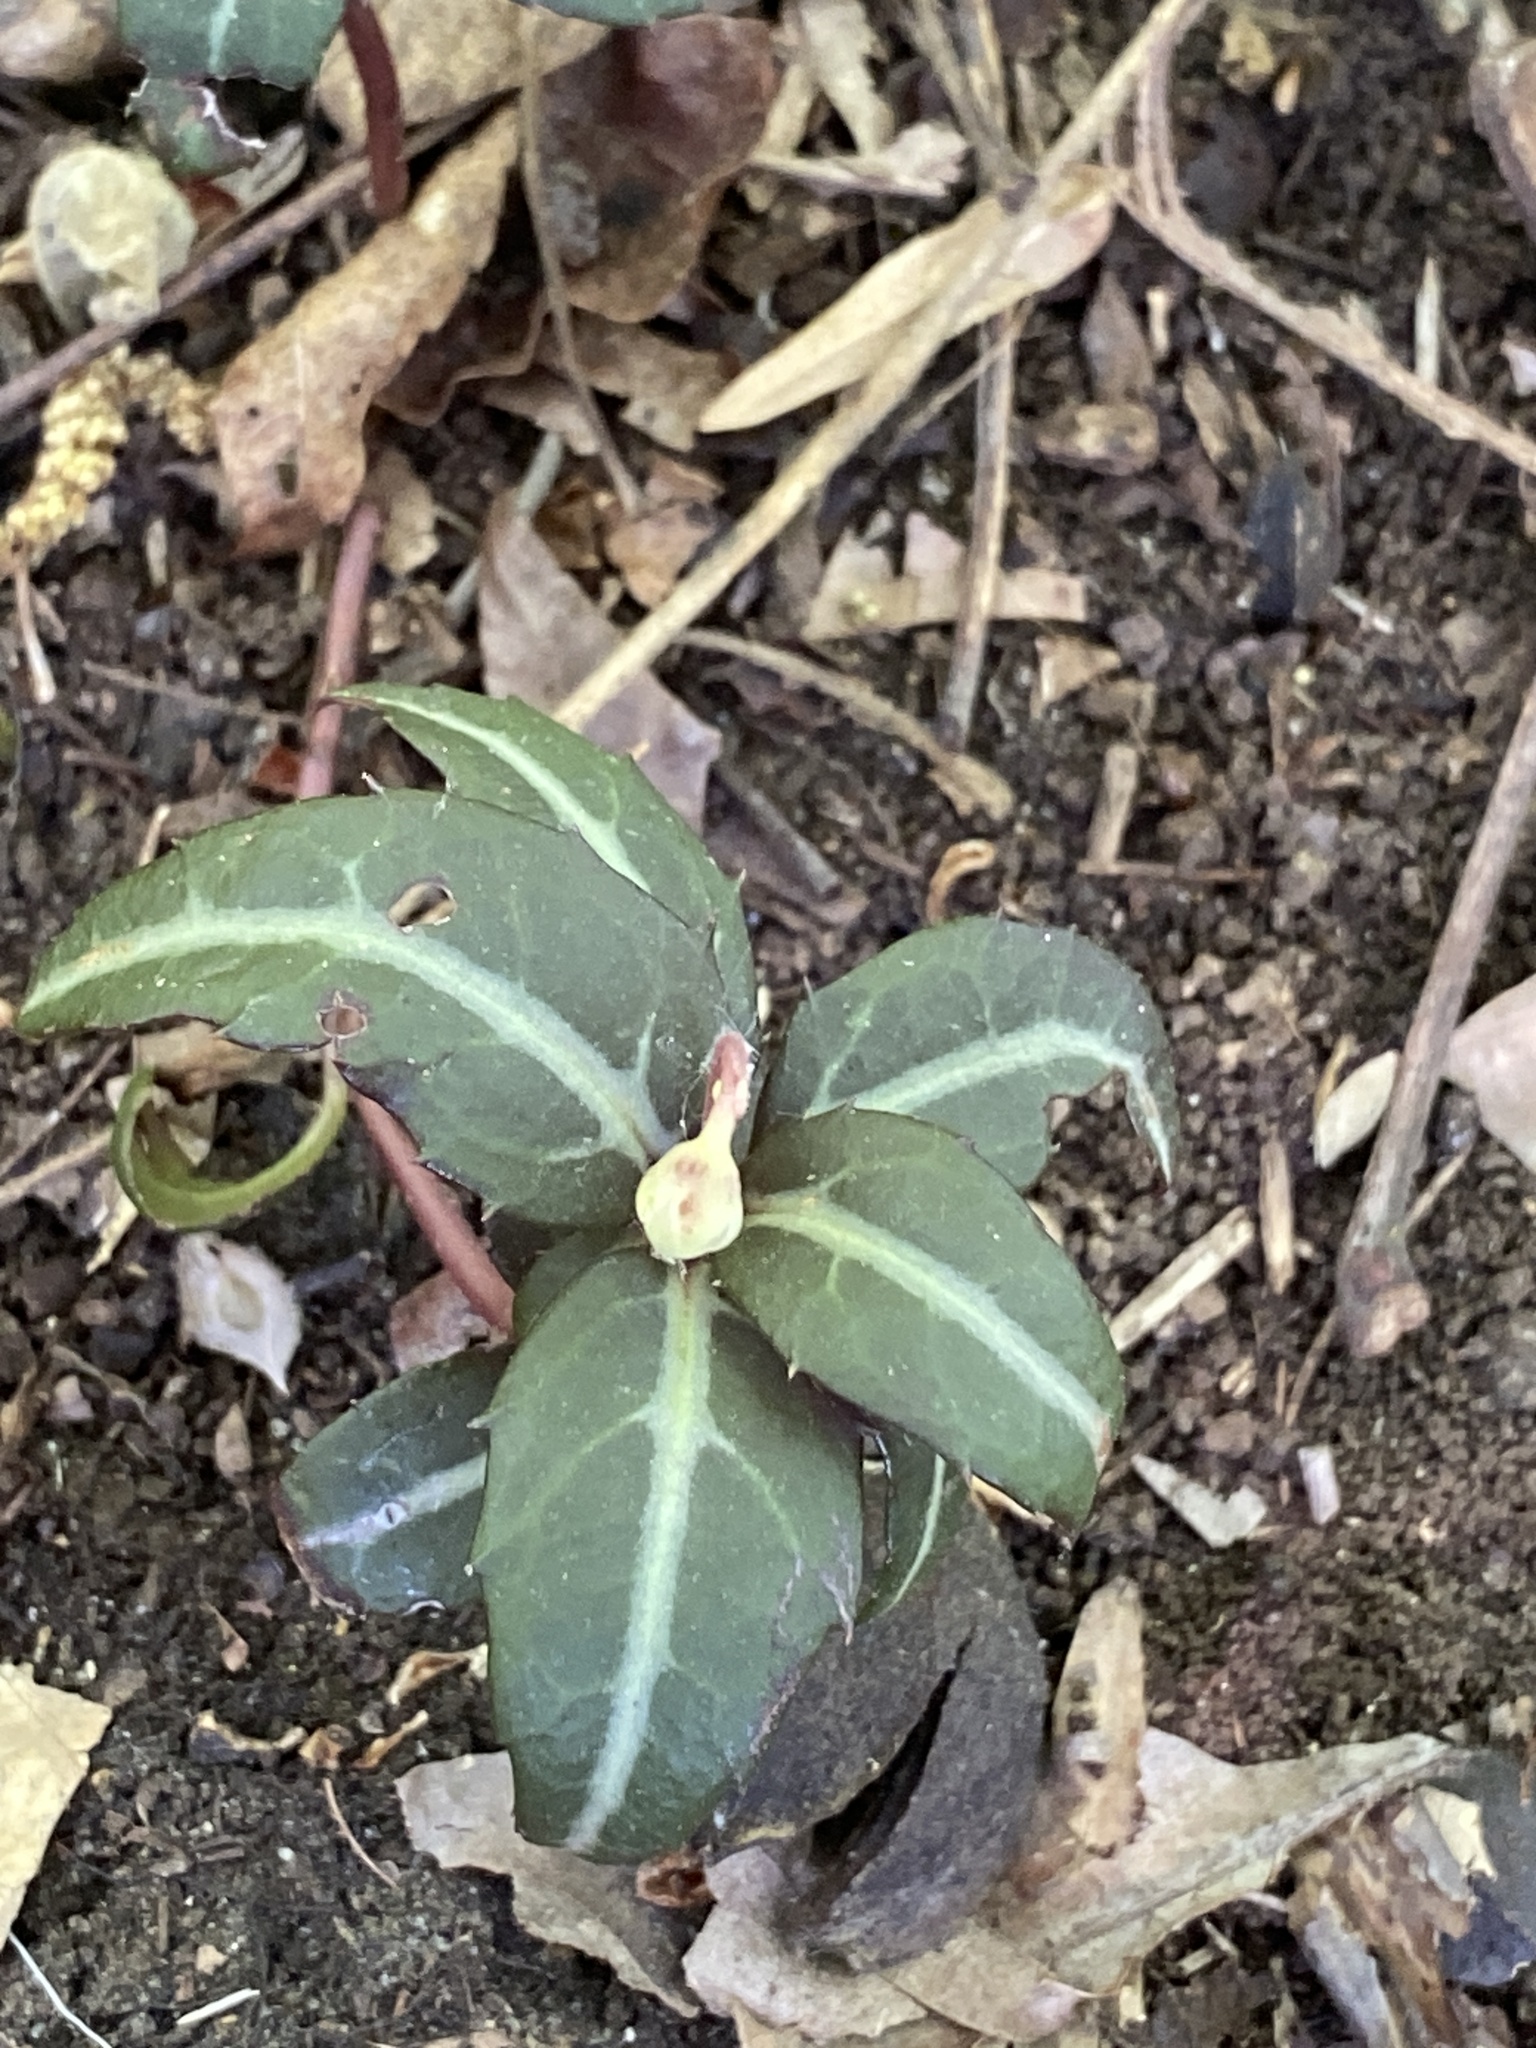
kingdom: Plantae
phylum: Tracheophyta
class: Magnoliopsida
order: Ericales
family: Ericaceae
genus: Chimaphila
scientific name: Chimaphila maculata
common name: Spotted pipsissewa
